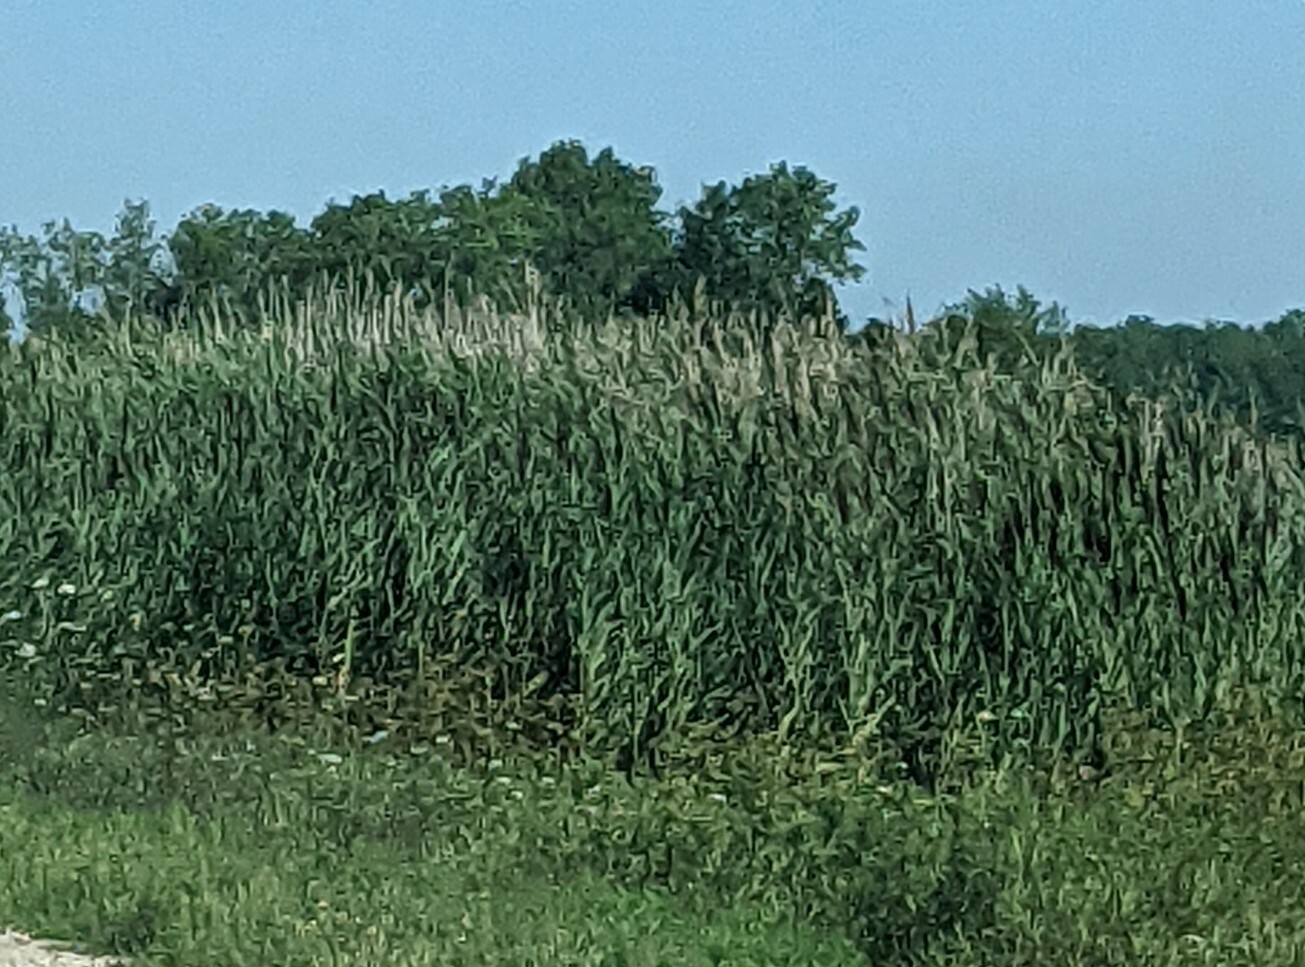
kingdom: Plantae
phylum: Tracheophyta
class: Liliopsida
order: Poales
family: Poaceae
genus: Phragmites
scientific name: Phragmites australis
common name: Common reed
